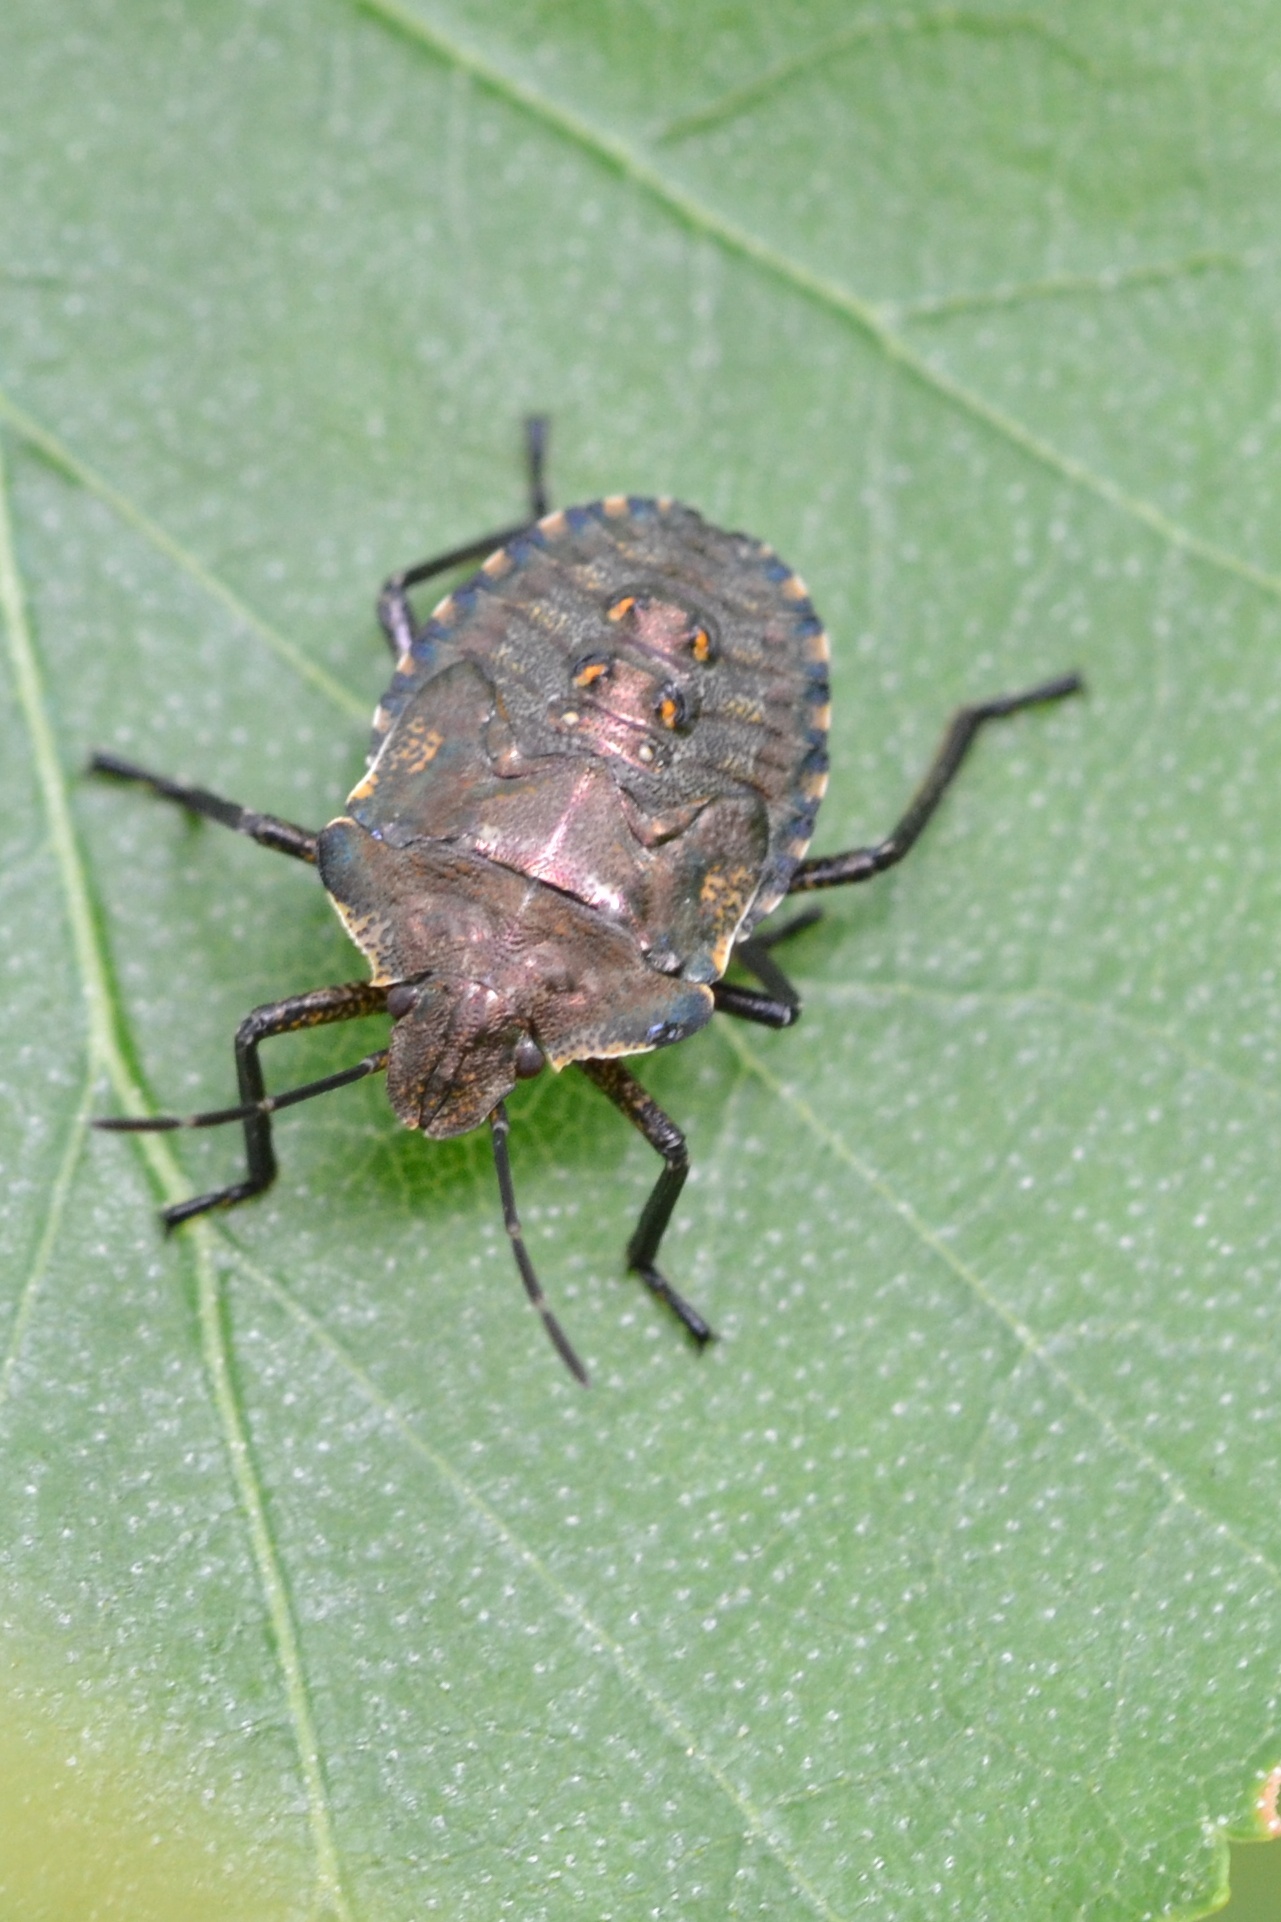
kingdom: Animalia
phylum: Arthropoda
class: Insecta
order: Hemiptera
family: Pentatomidae
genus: Pentatoma
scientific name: Pentatoma rufipes
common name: Forest bug
